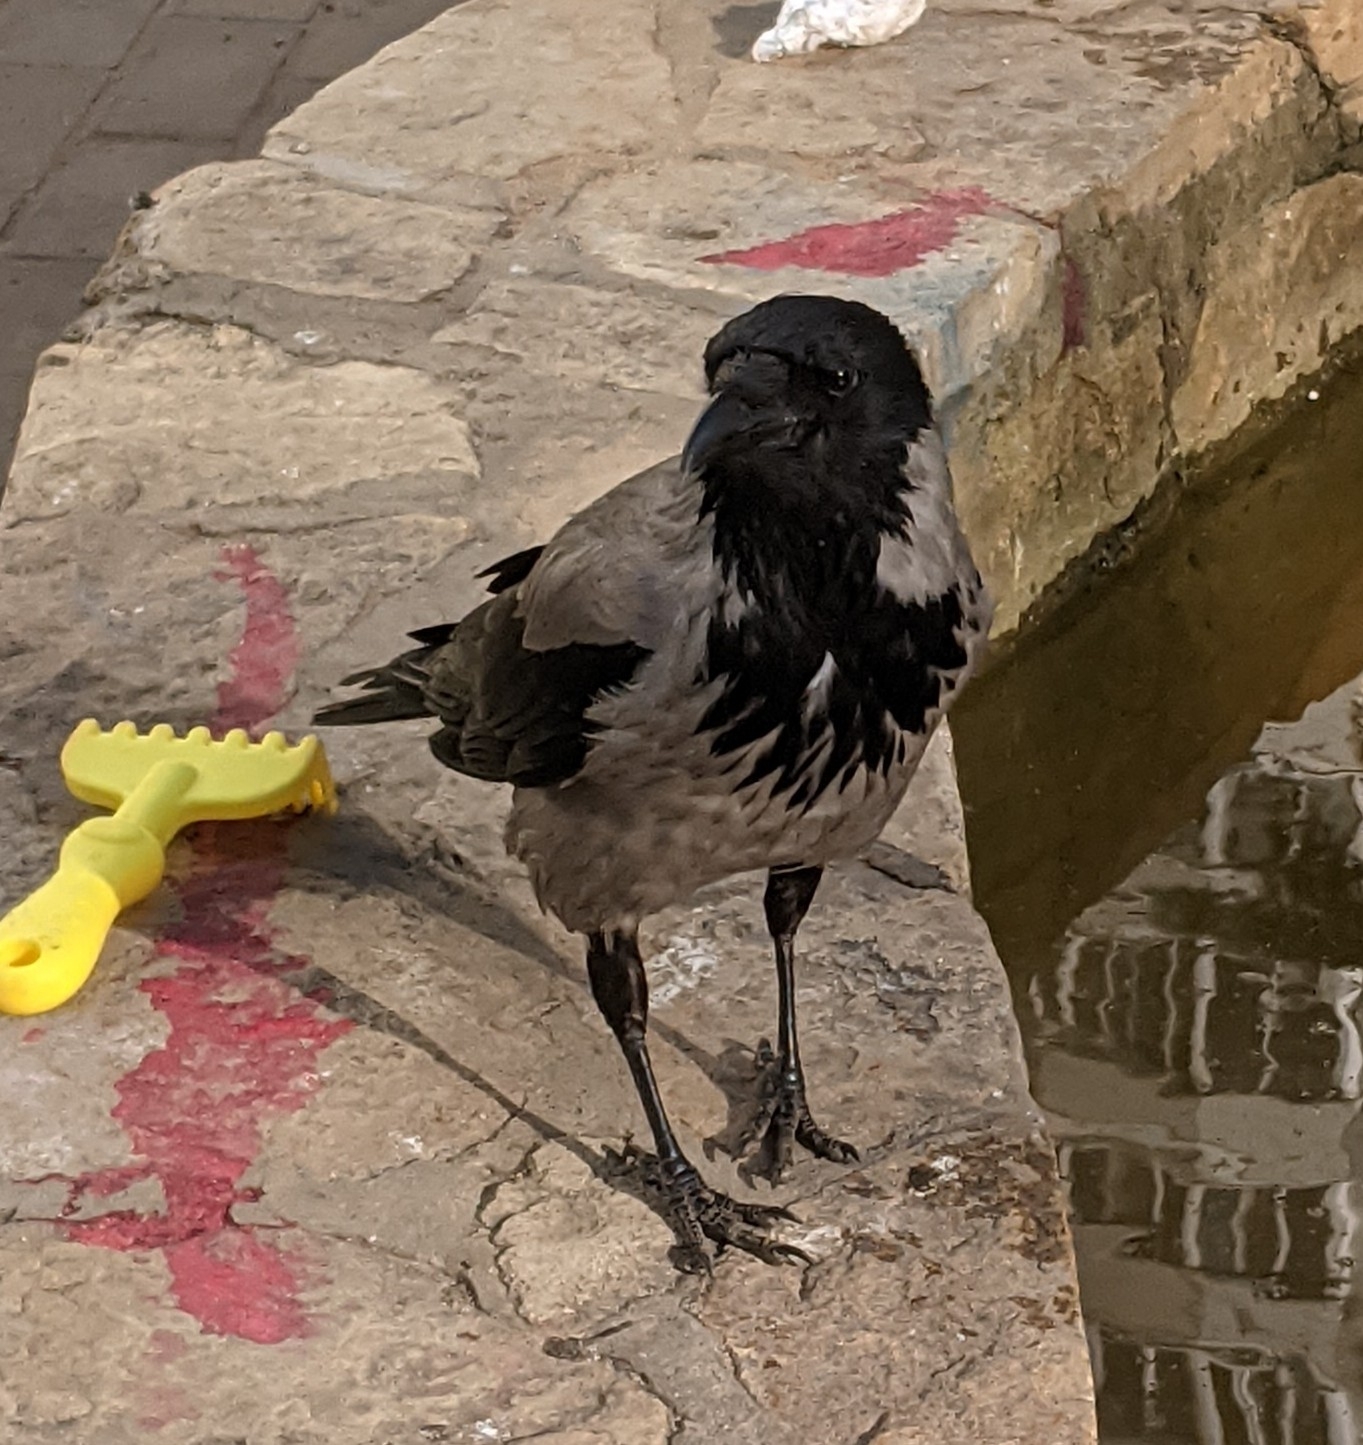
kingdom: Animalia
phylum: Chordata
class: Aves
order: Passeriformes
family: Corvidae
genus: Corvus
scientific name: Corvus cornix
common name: Hooded crow
